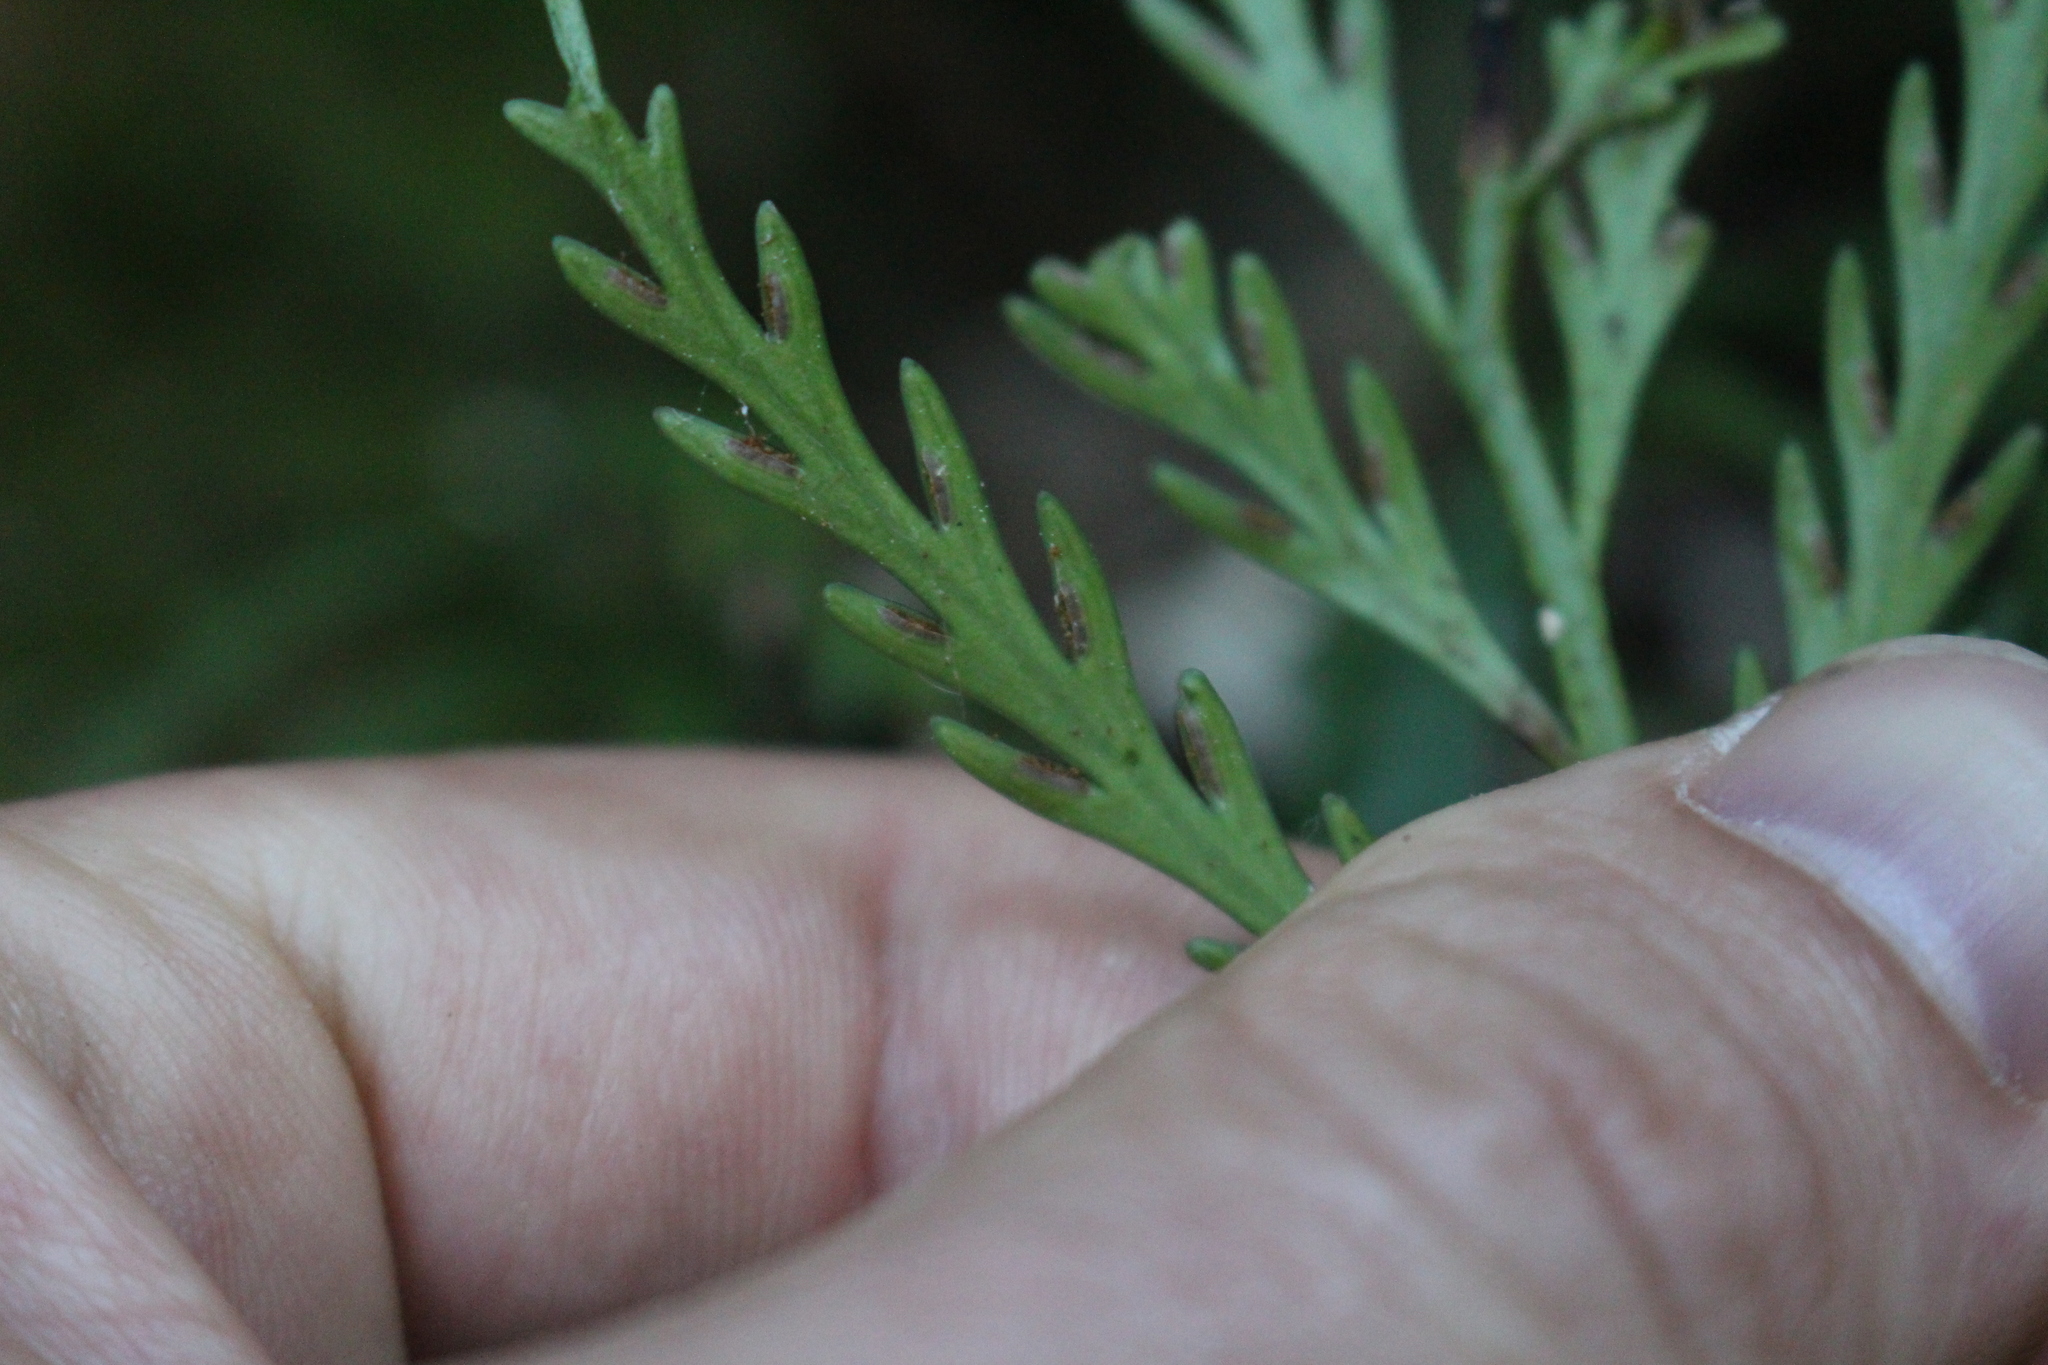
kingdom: Plantae
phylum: Tracheophyta
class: Polypodiopsida
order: Polypodiales
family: Aspleniaceae
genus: Asplenium
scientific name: Asplenium flaccidum
